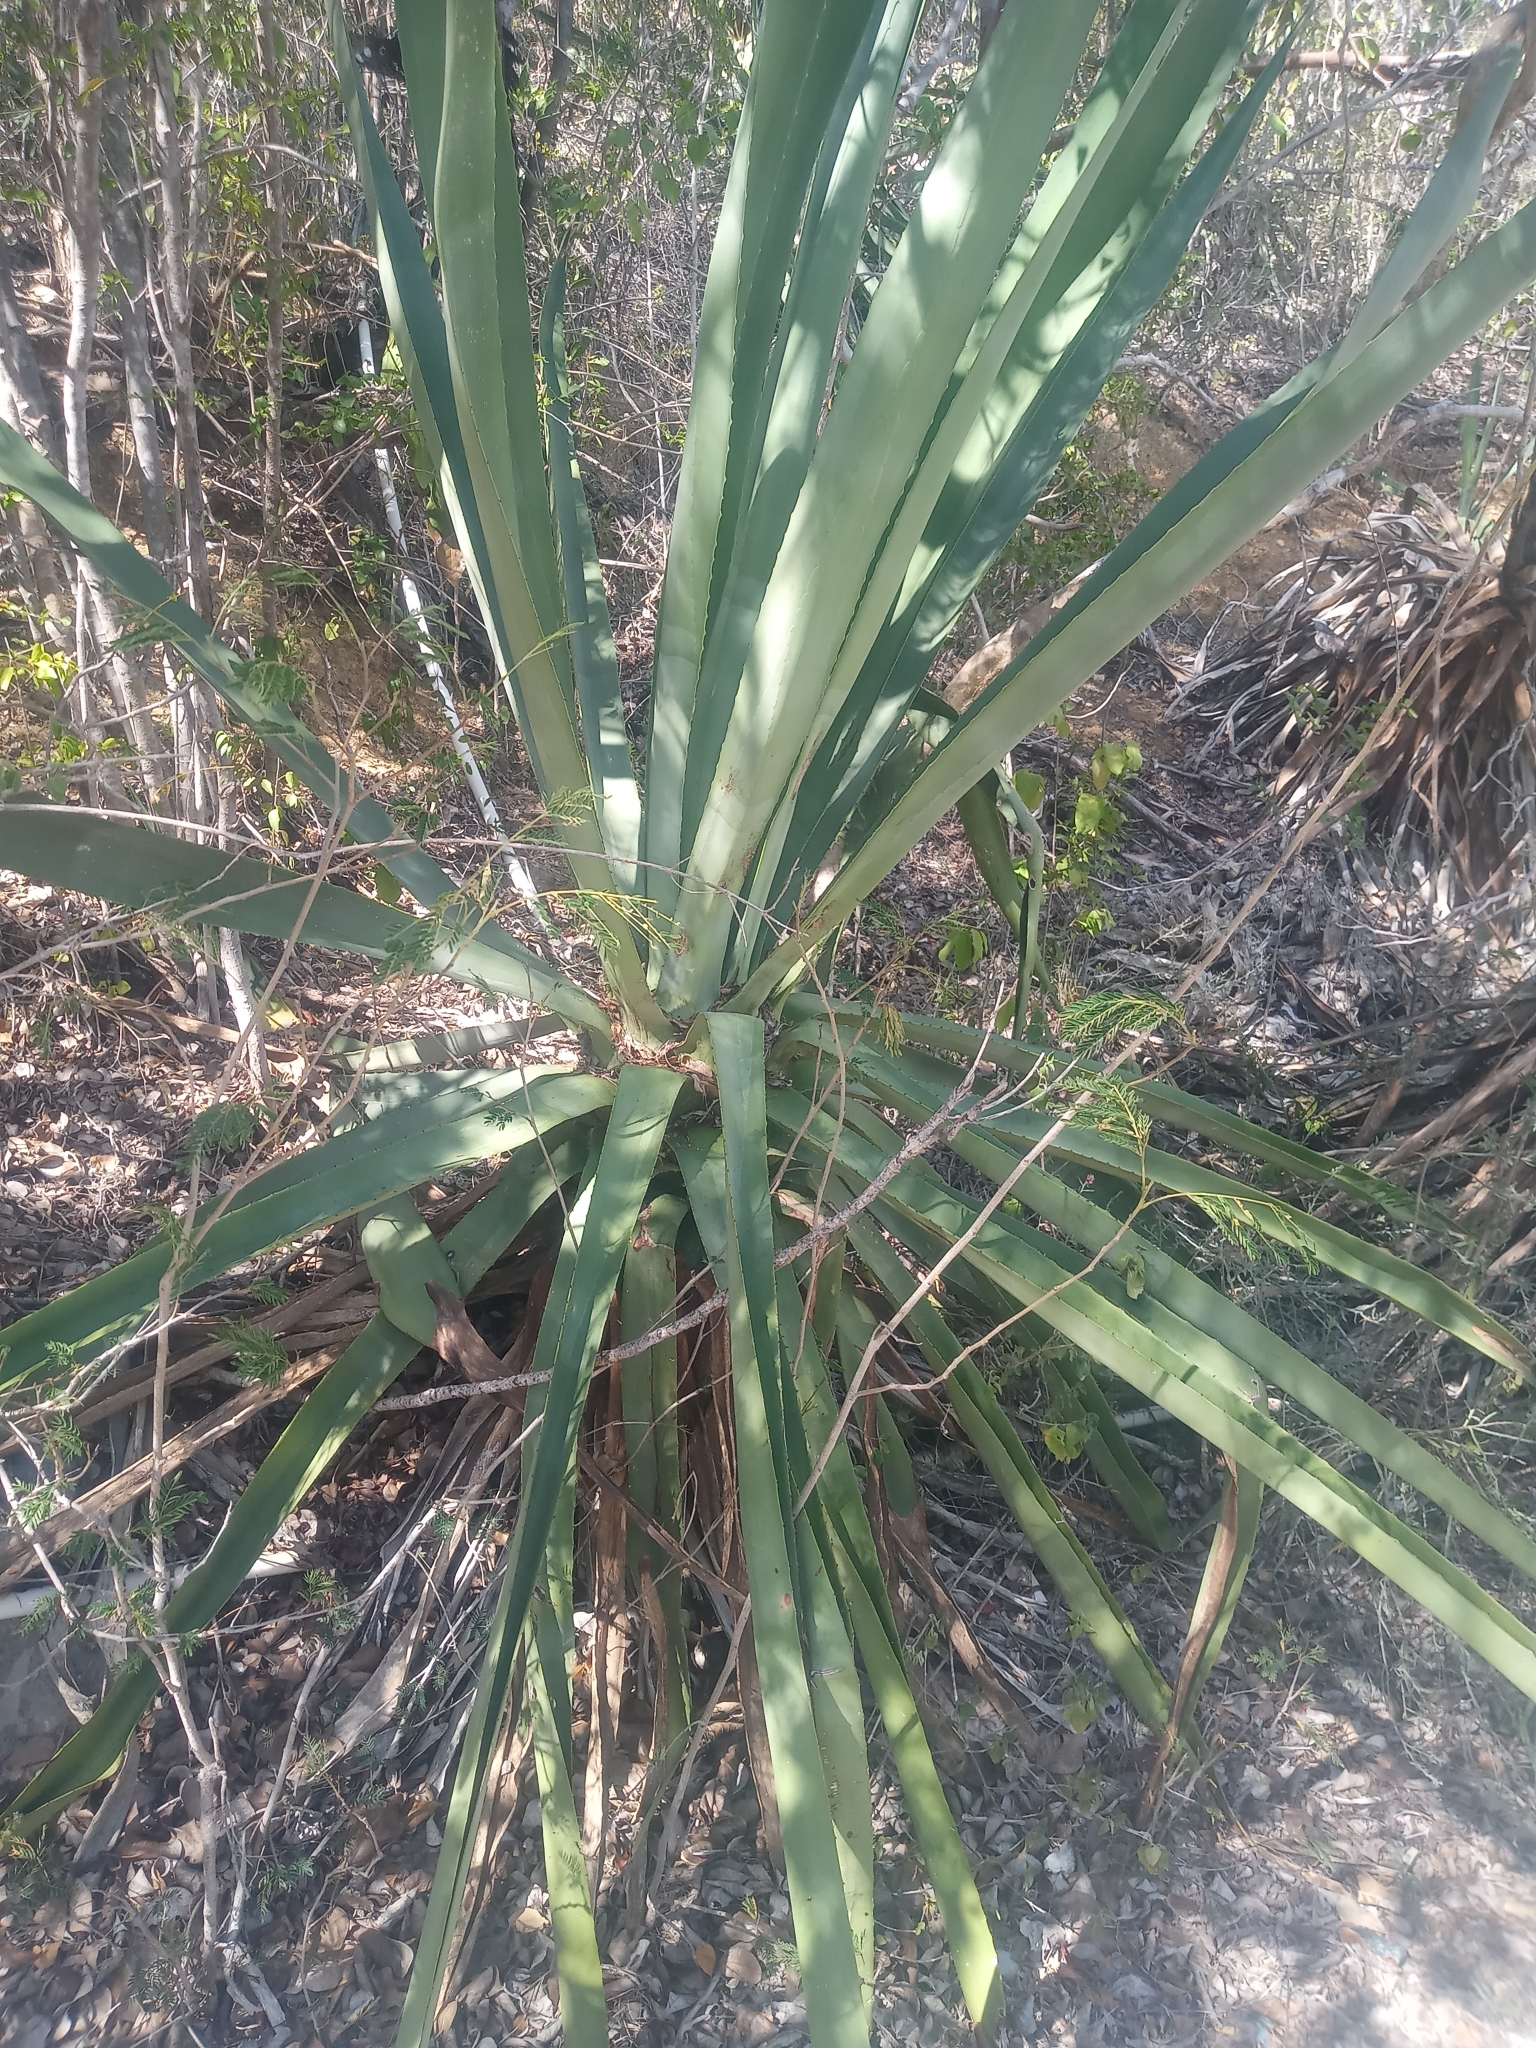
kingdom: Plantae
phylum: Tracheophyta
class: Liliopsida
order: Asparagales
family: Asparagaceae
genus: Agave
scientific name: Agave sisalana
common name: Sisal hemp
